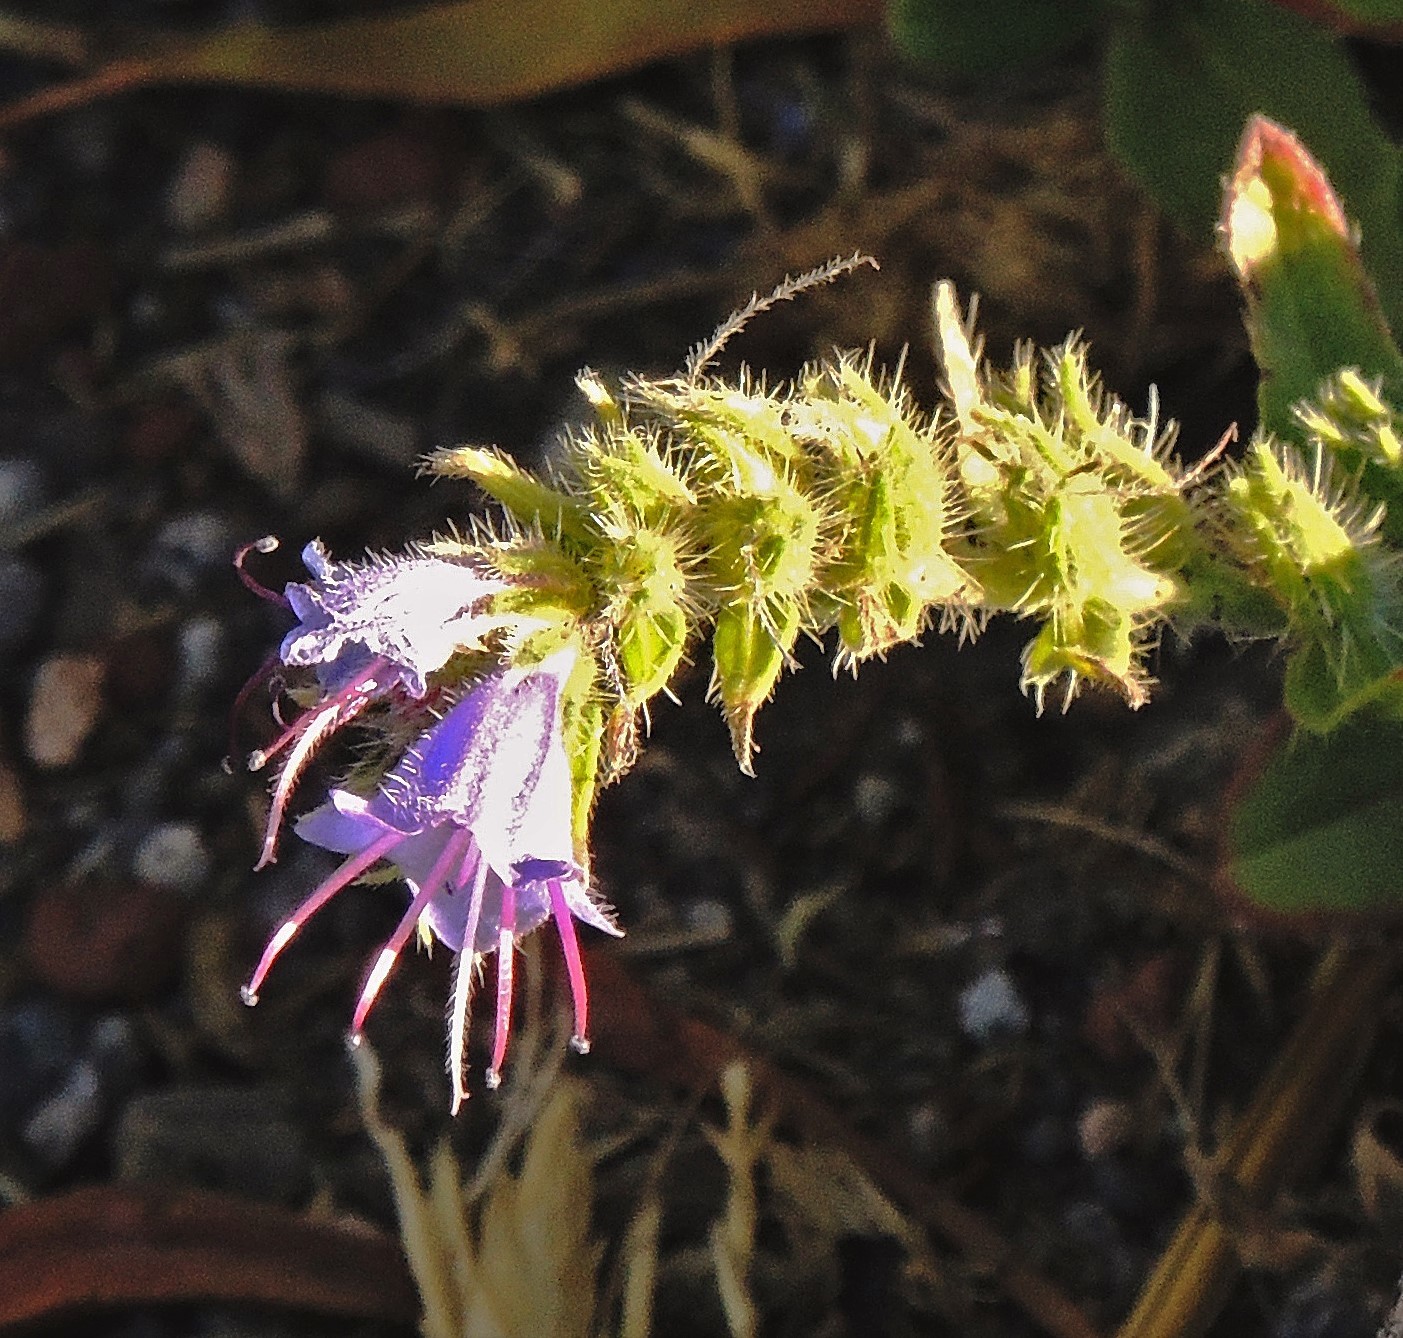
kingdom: Plantae
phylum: Tracheophyta
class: Magnoliopsida
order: Boraginales
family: Boraginaceae
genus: Echium
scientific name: Echium vulgare
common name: Common viper's bugloss
